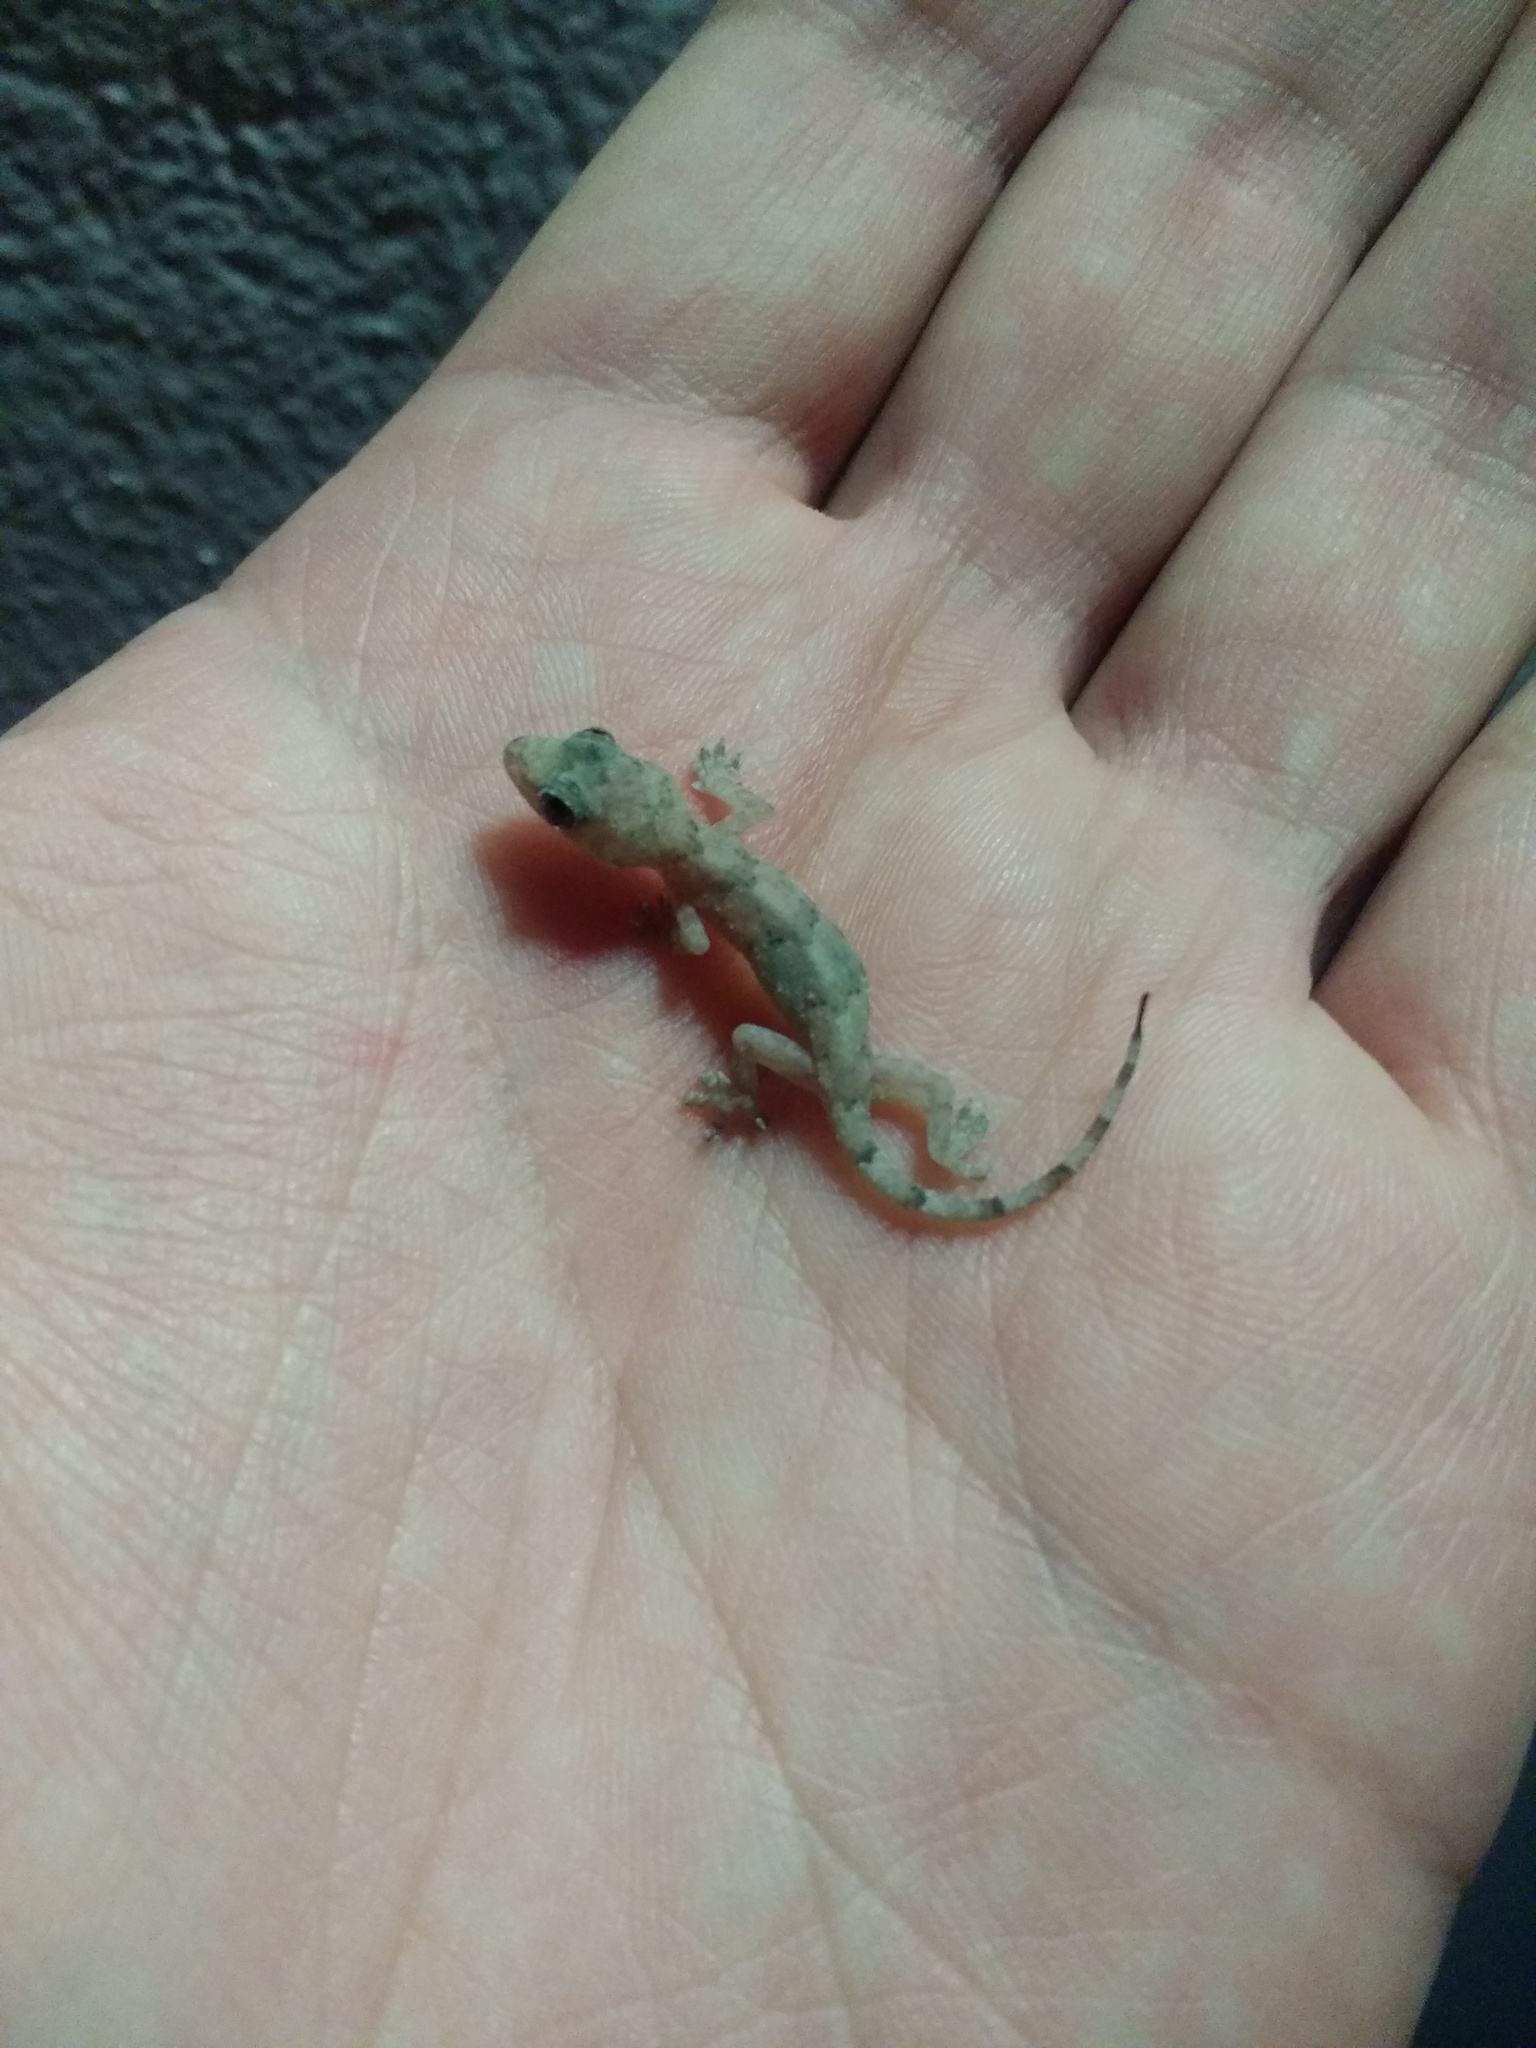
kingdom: Animalia
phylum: Chordata
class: Squamata
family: Gekkonidae
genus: Hemidactylus
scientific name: Hemidactylus mabouia
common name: House gecko
